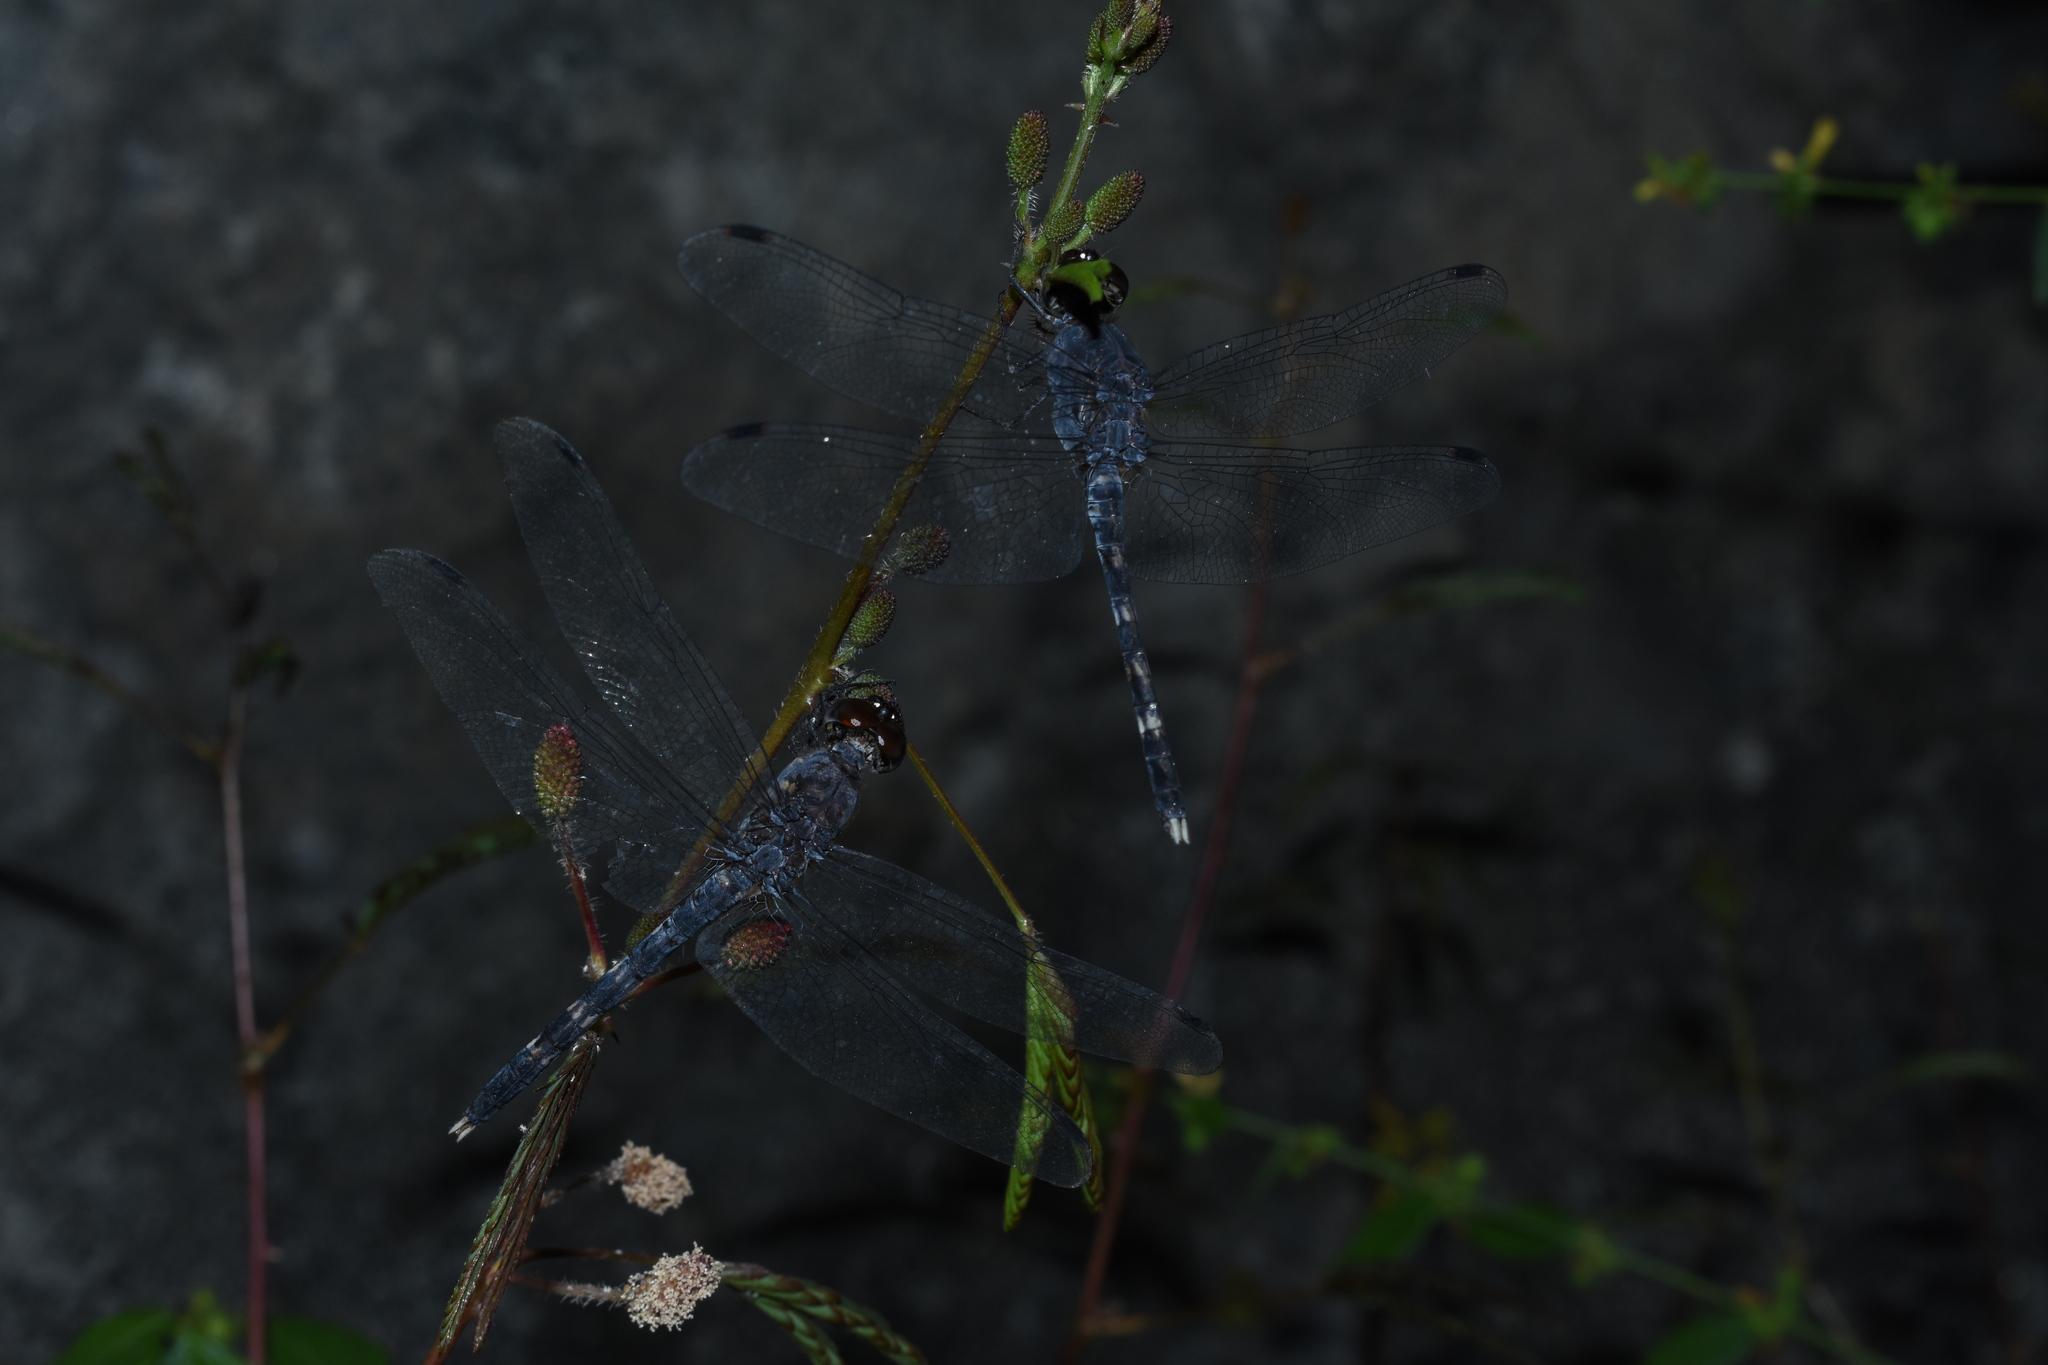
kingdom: Animalia
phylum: Arthropoda
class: Insecta
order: Odonata
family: Libellulidae
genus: Bradinopyga
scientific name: Bradinopyga geminata
